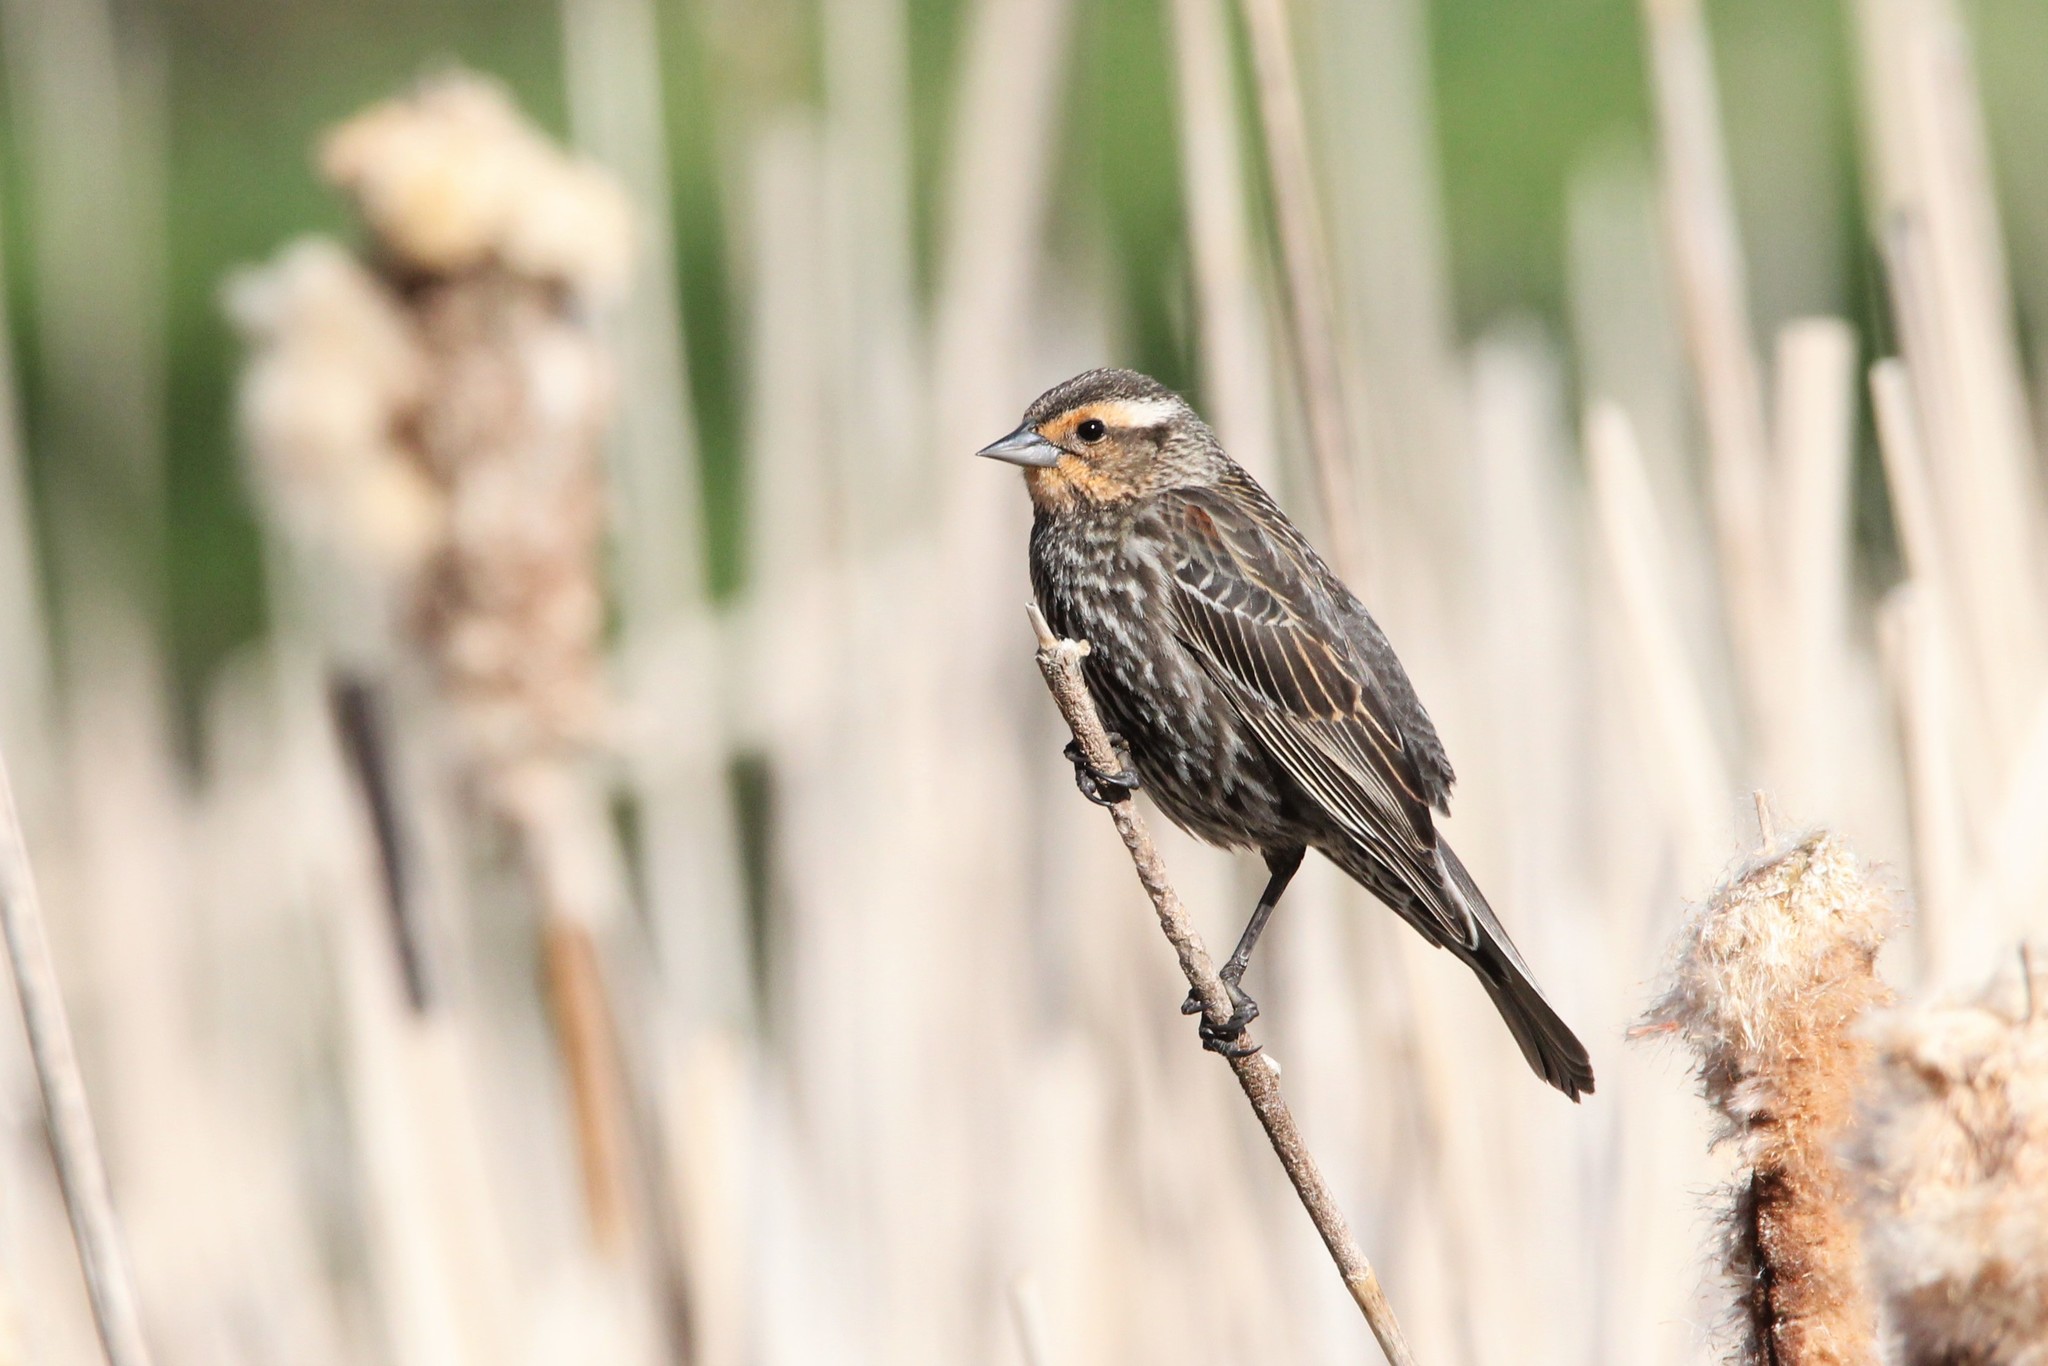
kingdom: Animalia
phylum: Chordata
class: Aves
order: Passeriformes
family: Icteridae
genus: Agelaius
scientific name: Agelaius phoeniceus
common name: Red-winged blackbird
